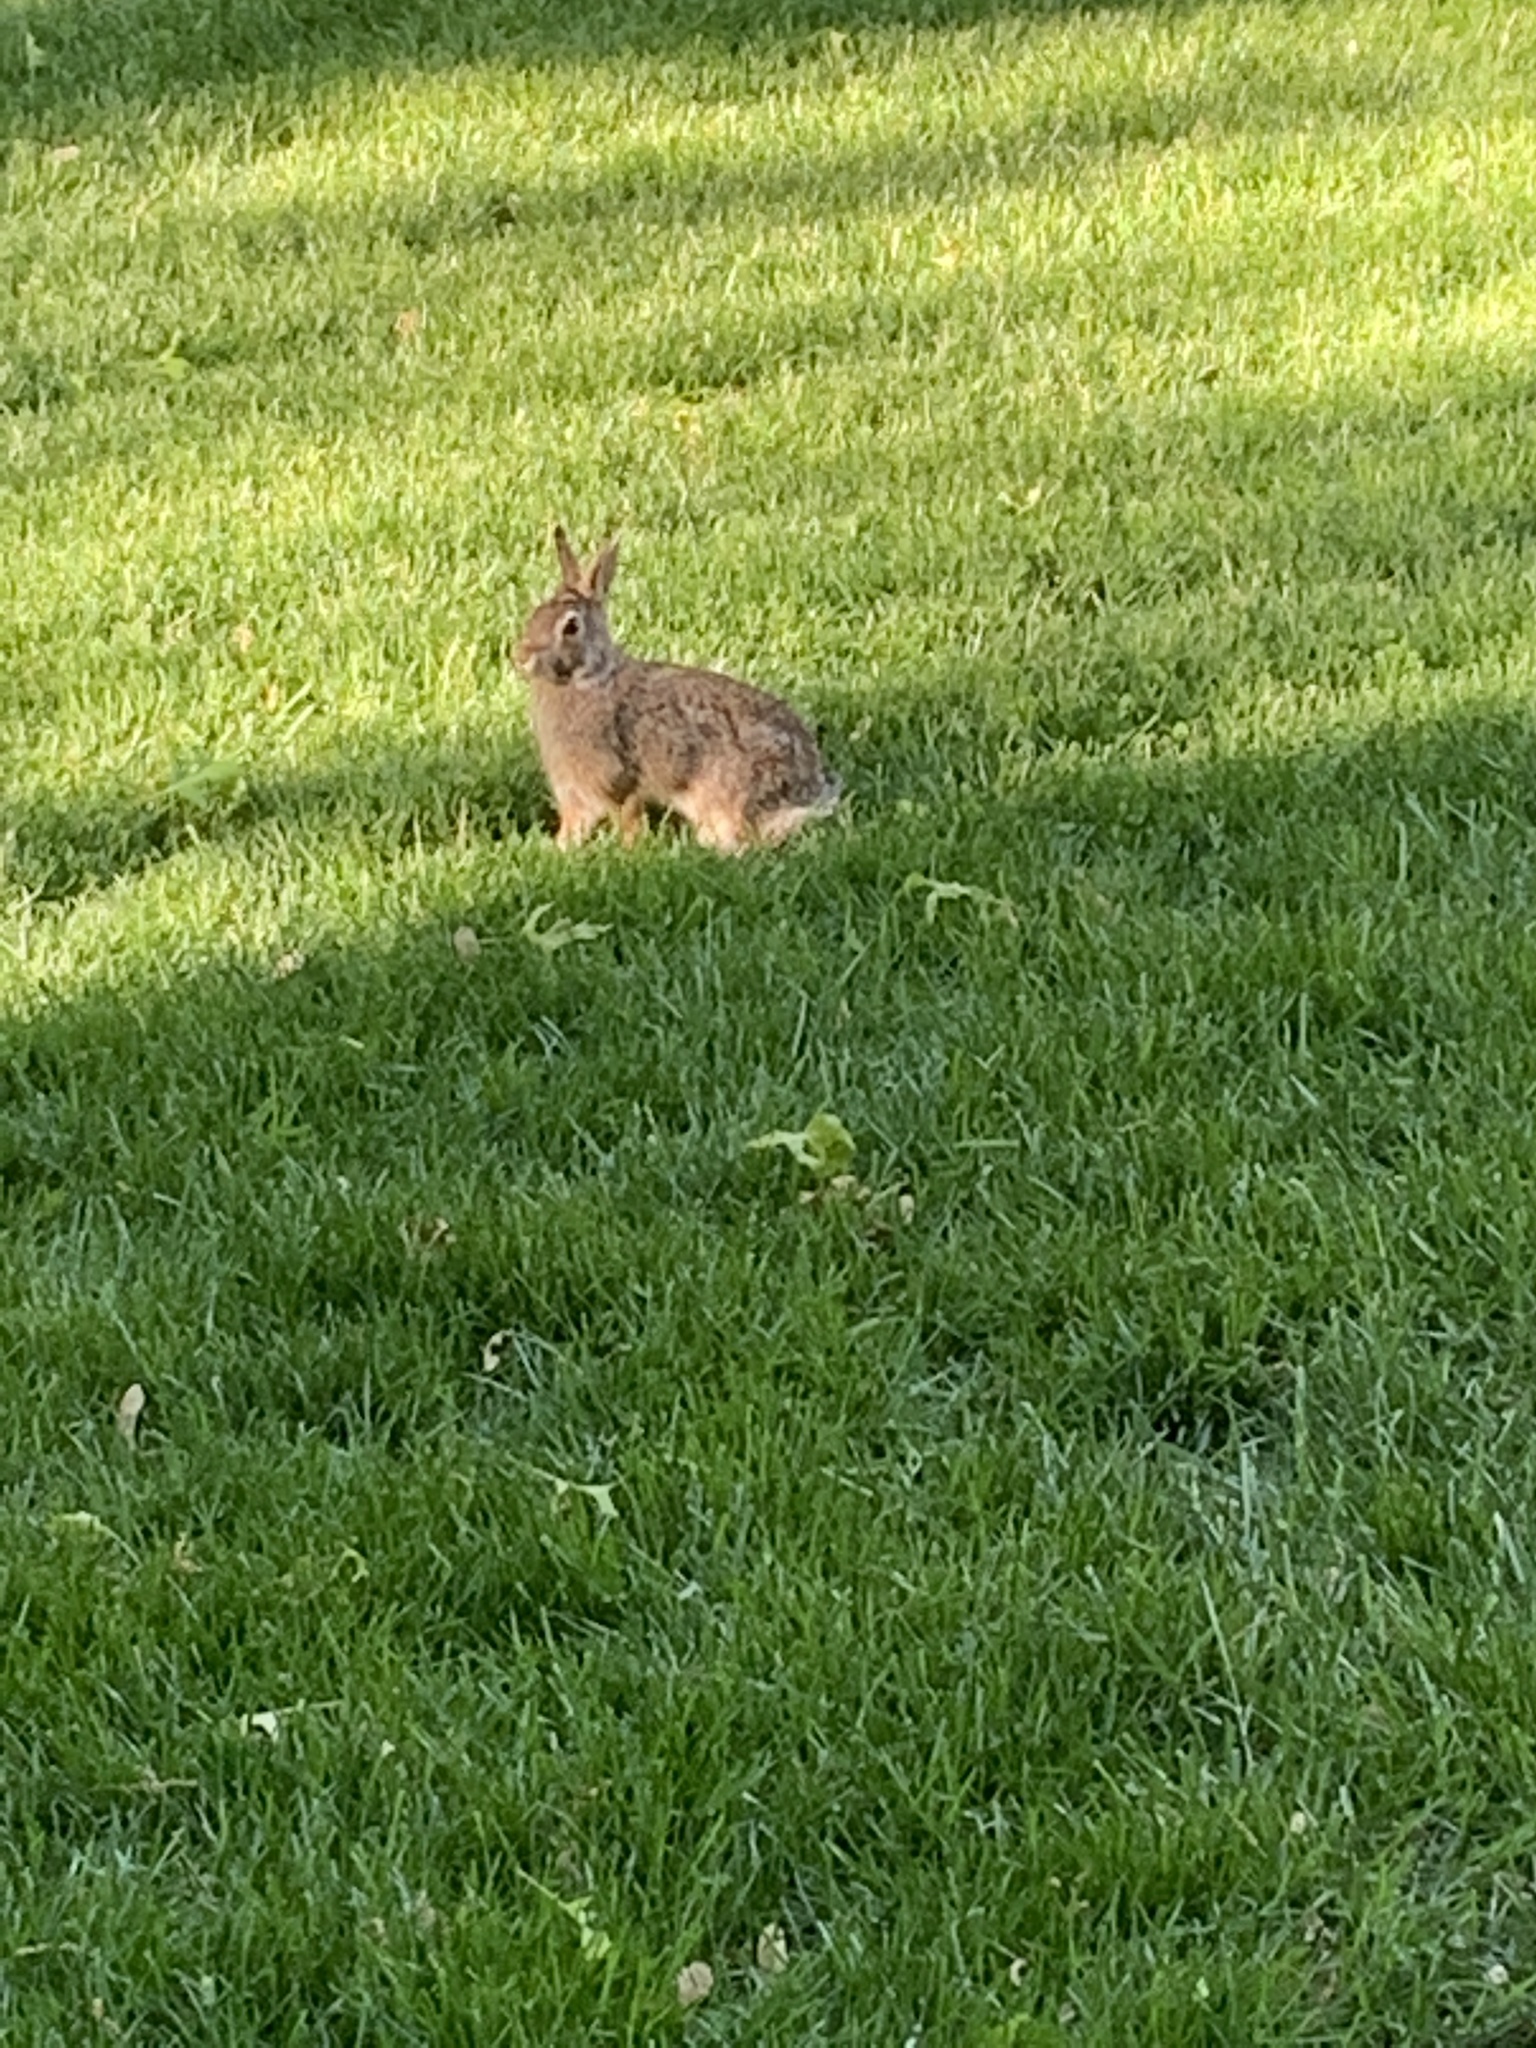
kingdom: Animalia
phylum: Chordata
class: Mammalia
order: Lagomorpha
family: Leporidae
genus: Sylvilagus
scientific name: Sylvilagus floridanus
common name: Eastern cottontail
